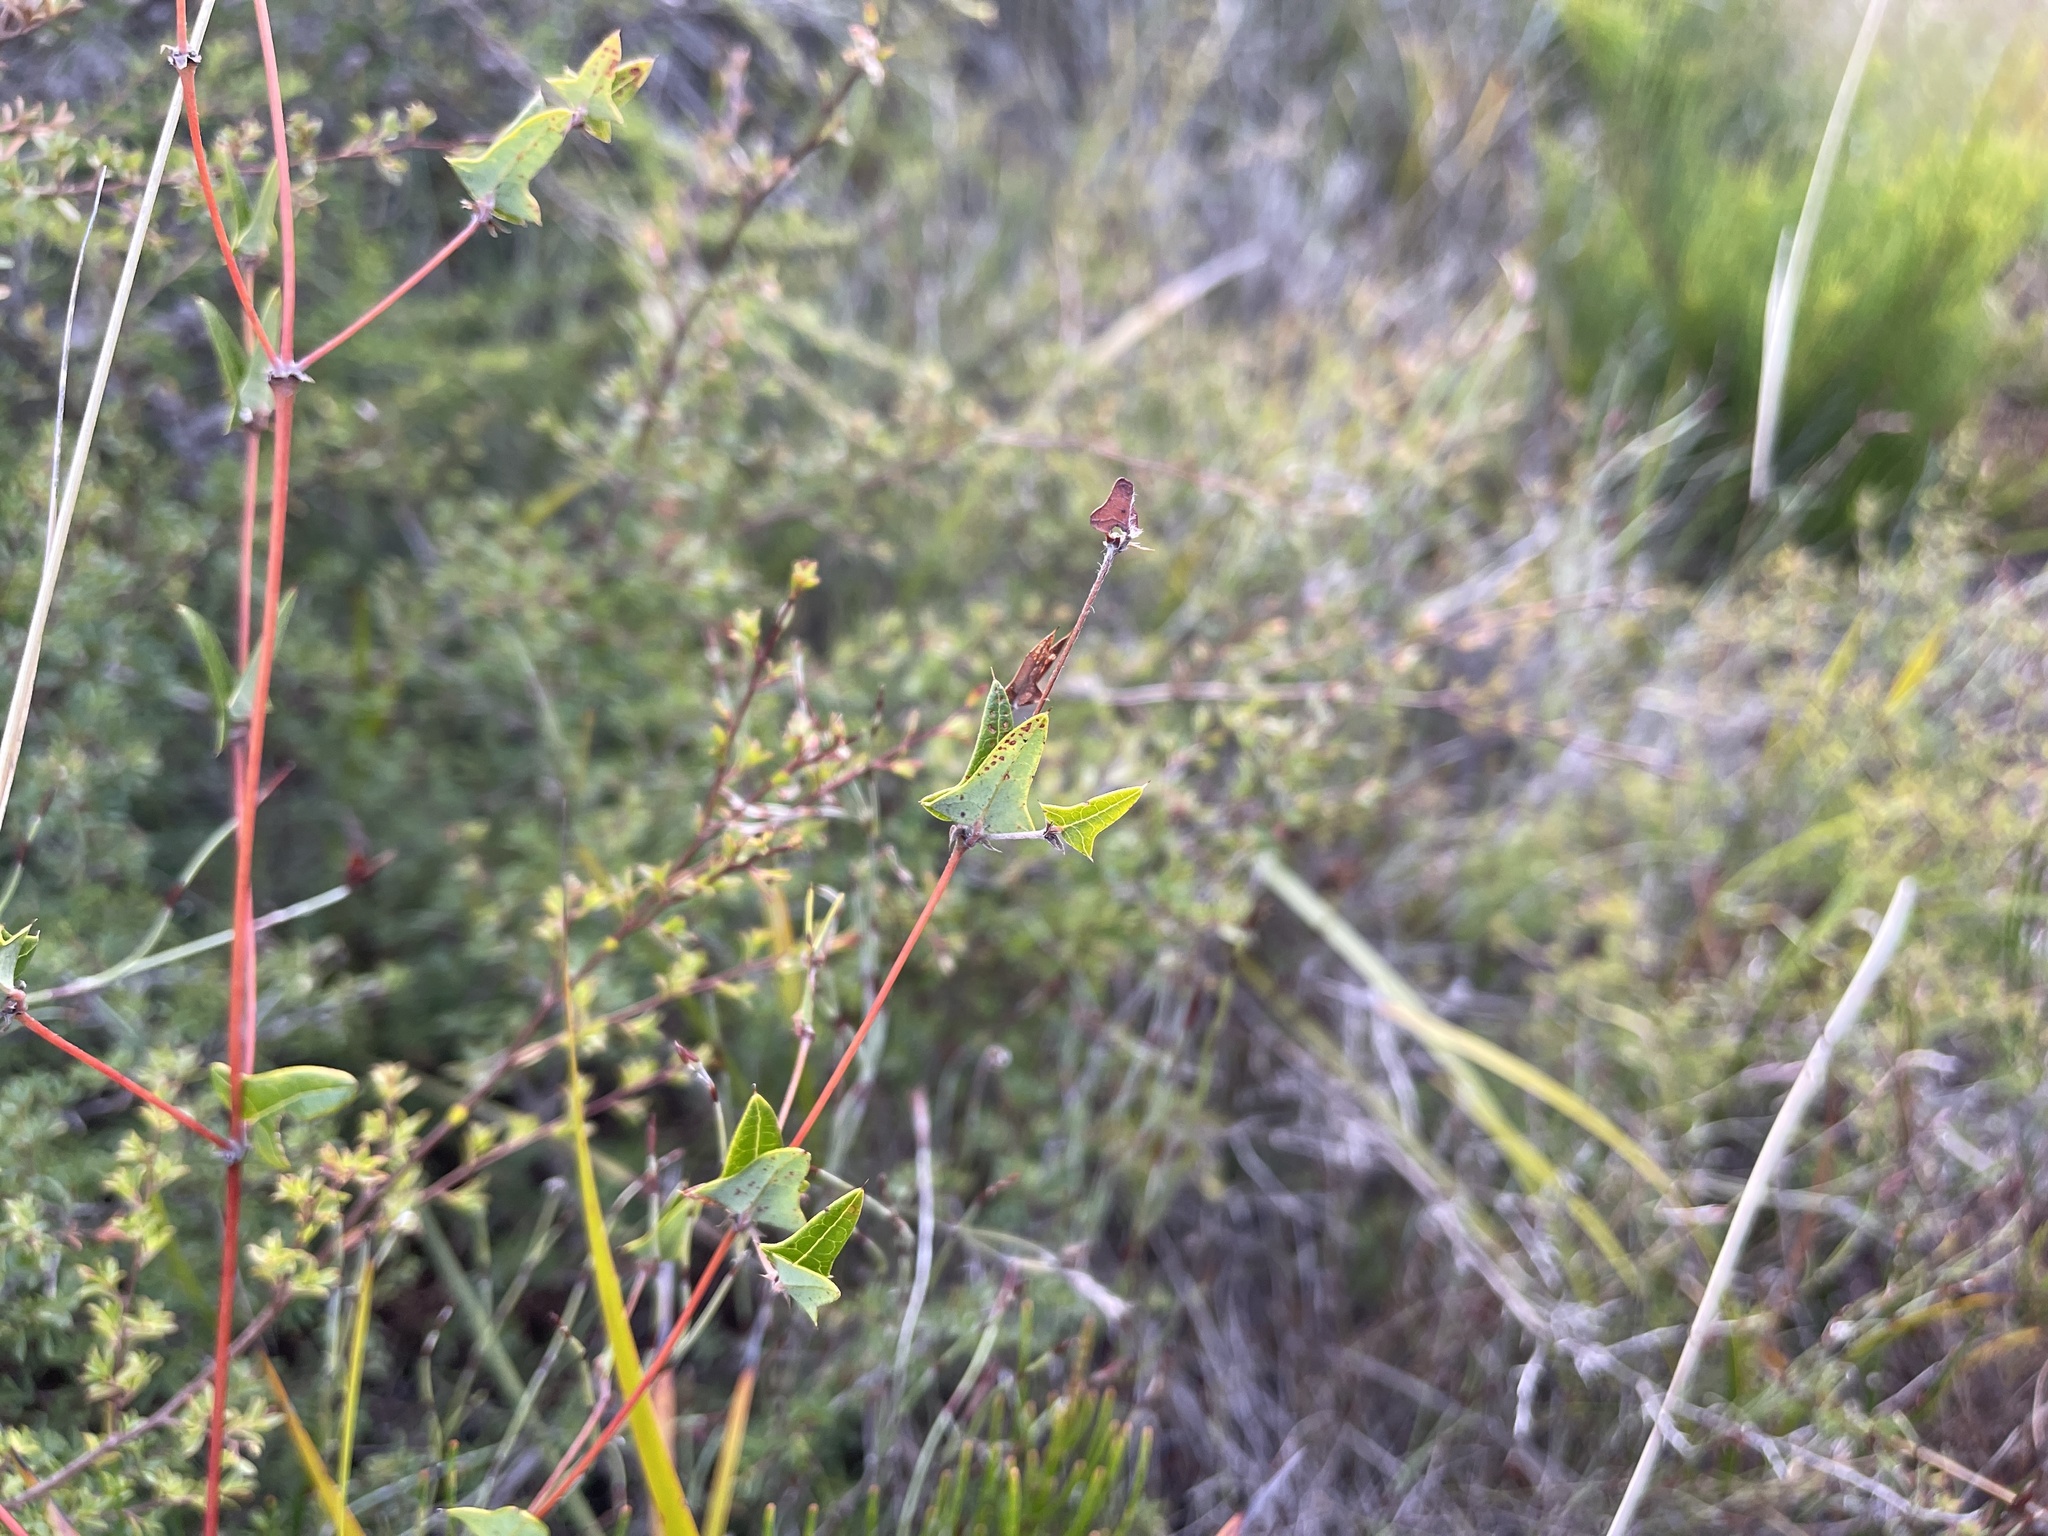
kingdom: Plantae
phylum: Tracheophyta
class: Magnoliopsida
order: Fabales
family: Fabaceae
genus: Platylobium
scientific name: Platylobium obtusangulum
